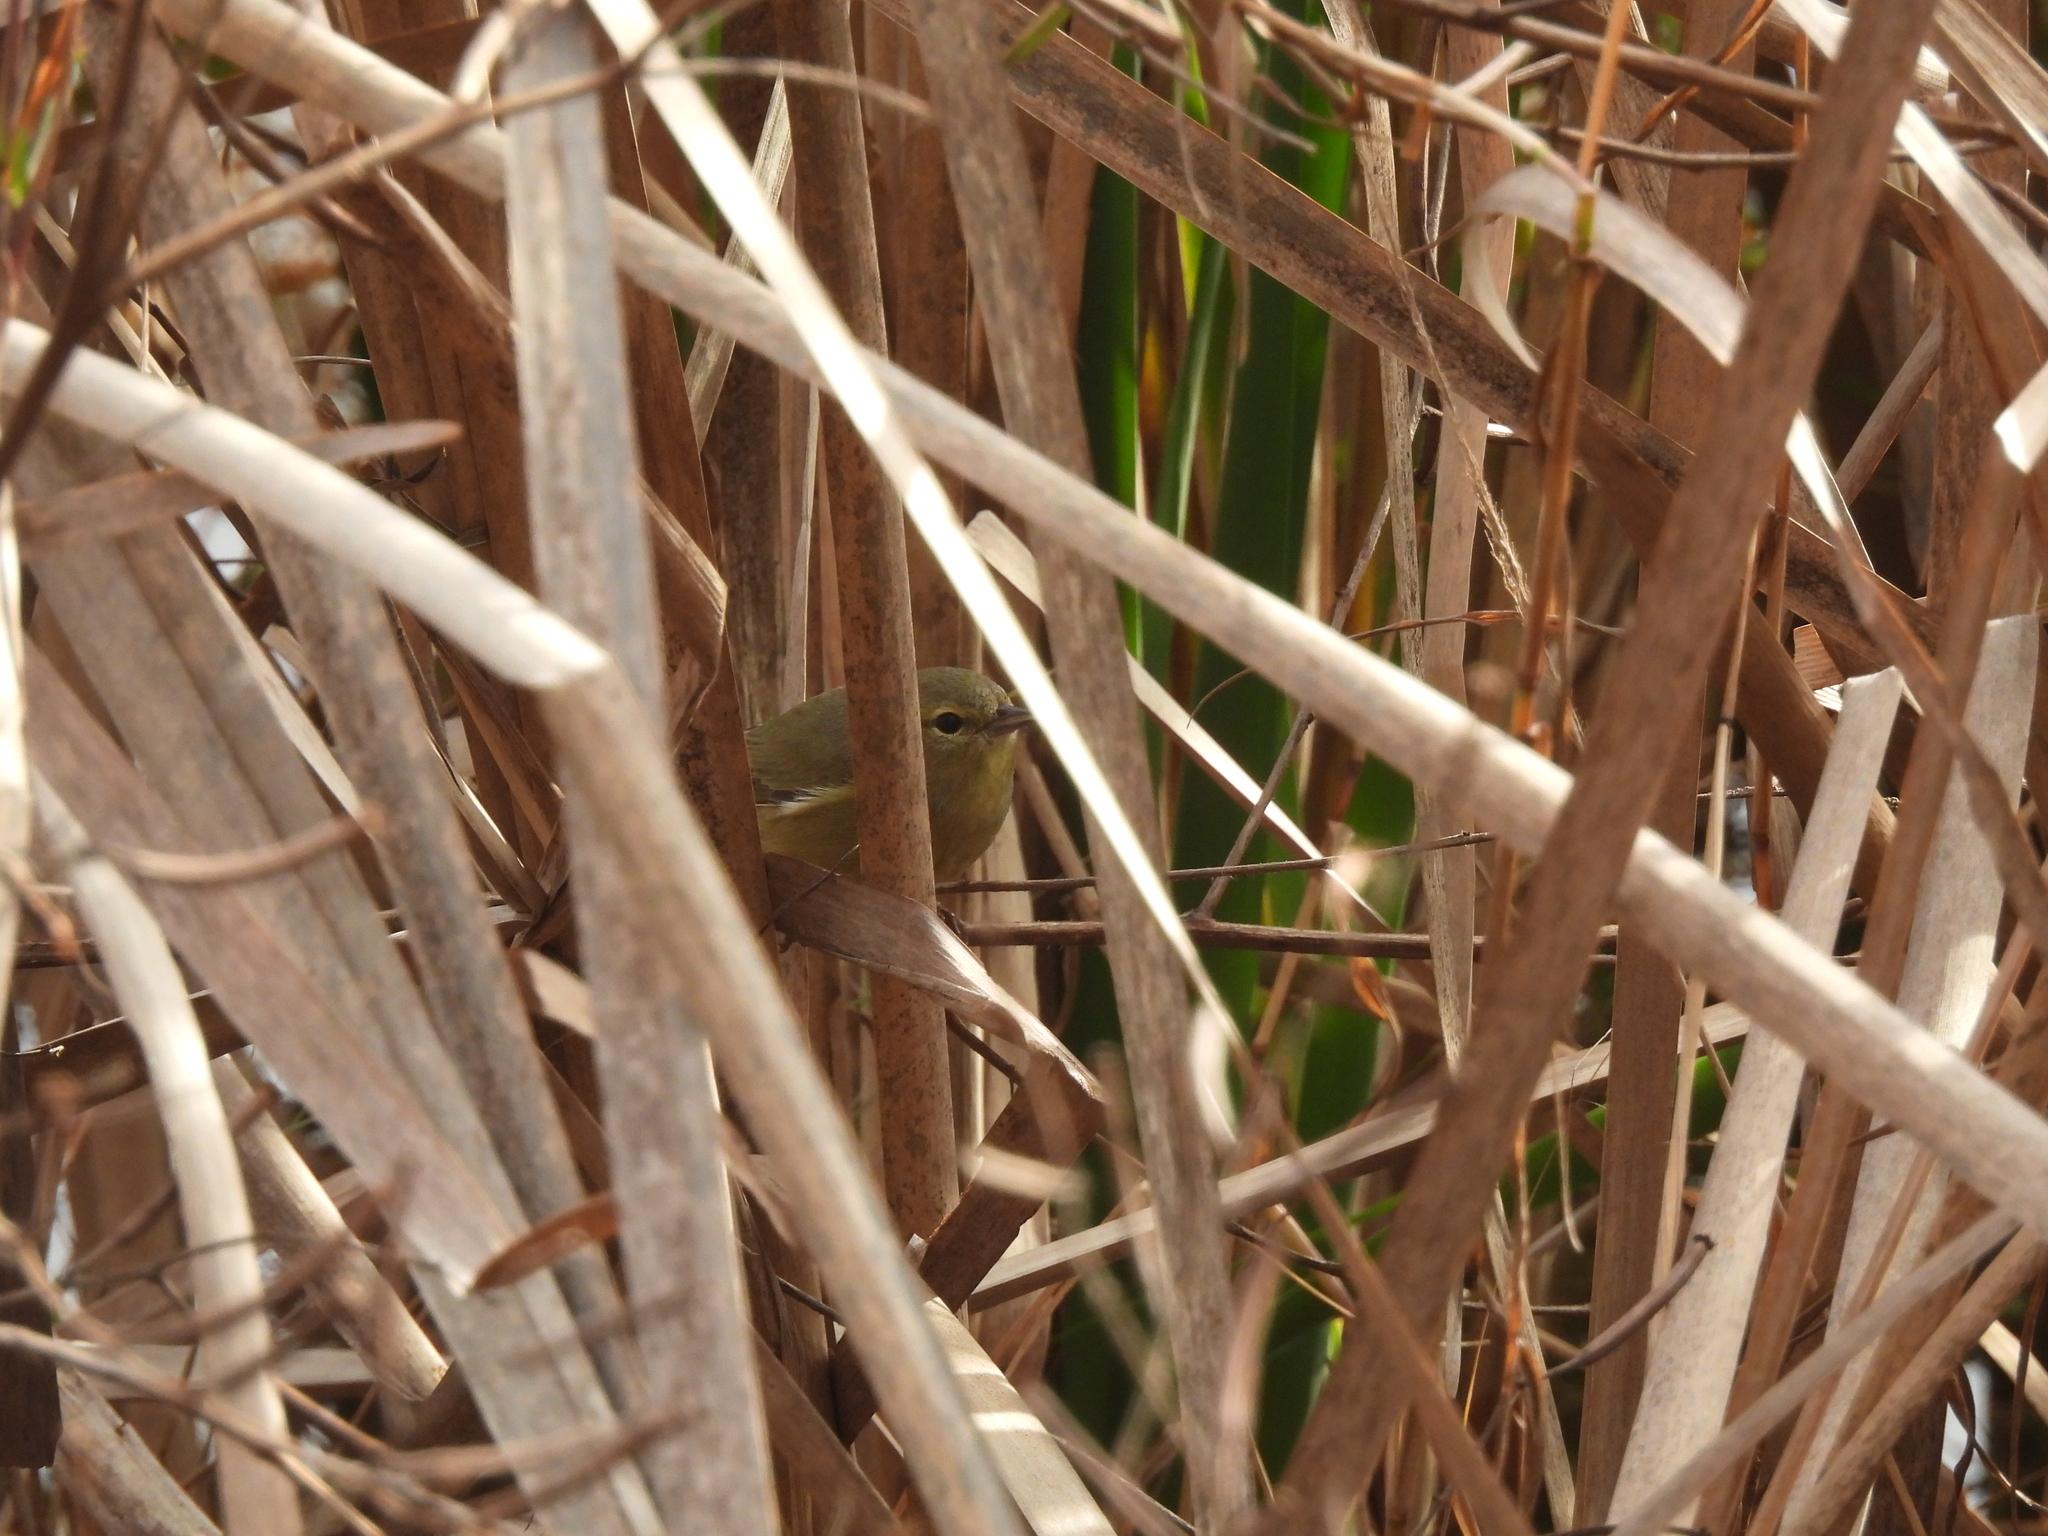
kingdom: Animalia
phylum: Chordata
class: Aves
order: Passeriformes
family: Parulidae
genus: Leiothlypis
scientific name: Leiothlypis celata
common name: Orange-crowned warbler
